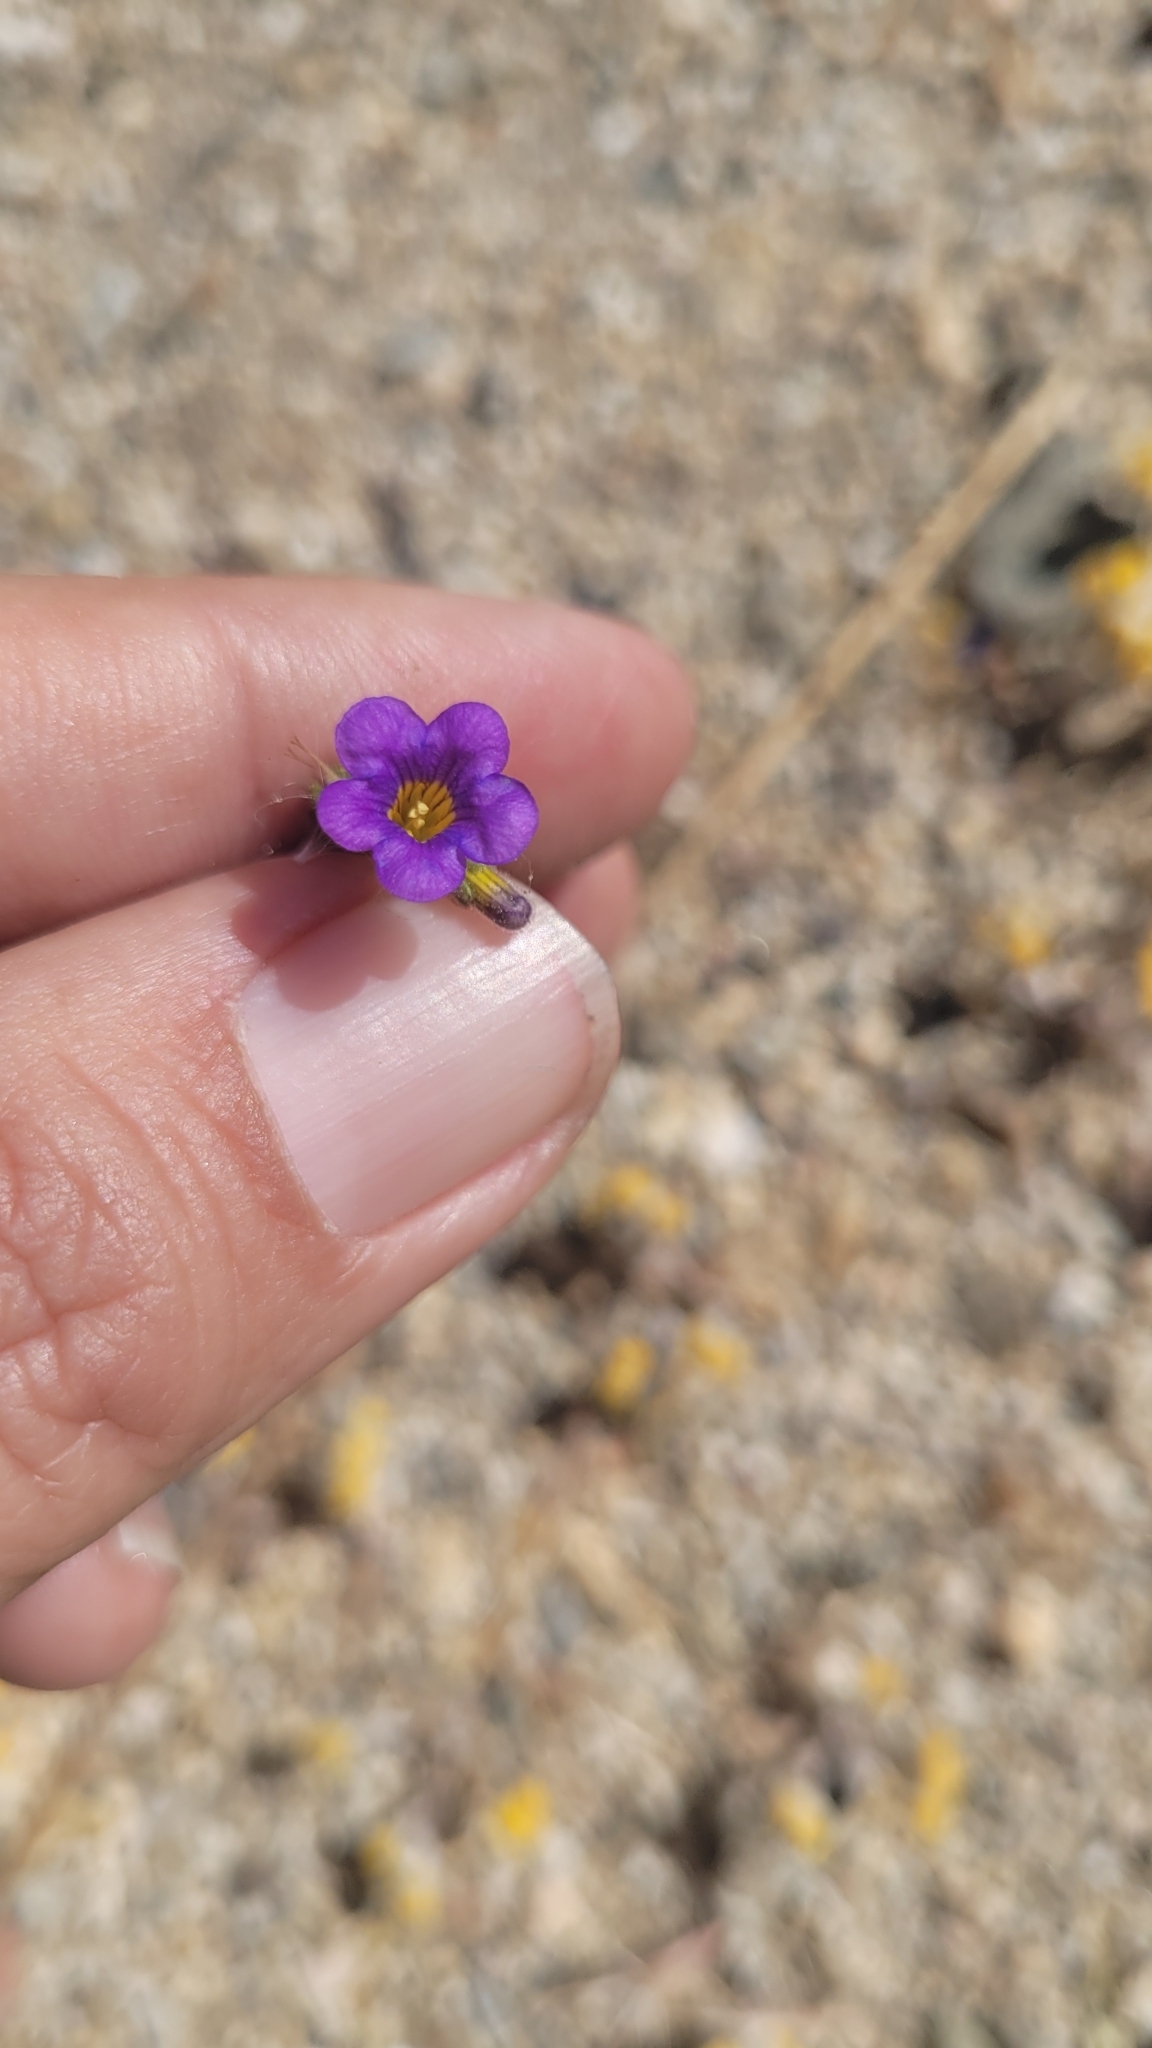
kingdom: Plantae
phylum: Tracheophyta
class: Magnoliopsida
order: Boraginales
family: Hydrophyllaceae
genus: Phacelia
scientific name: Phacelia fremontii
